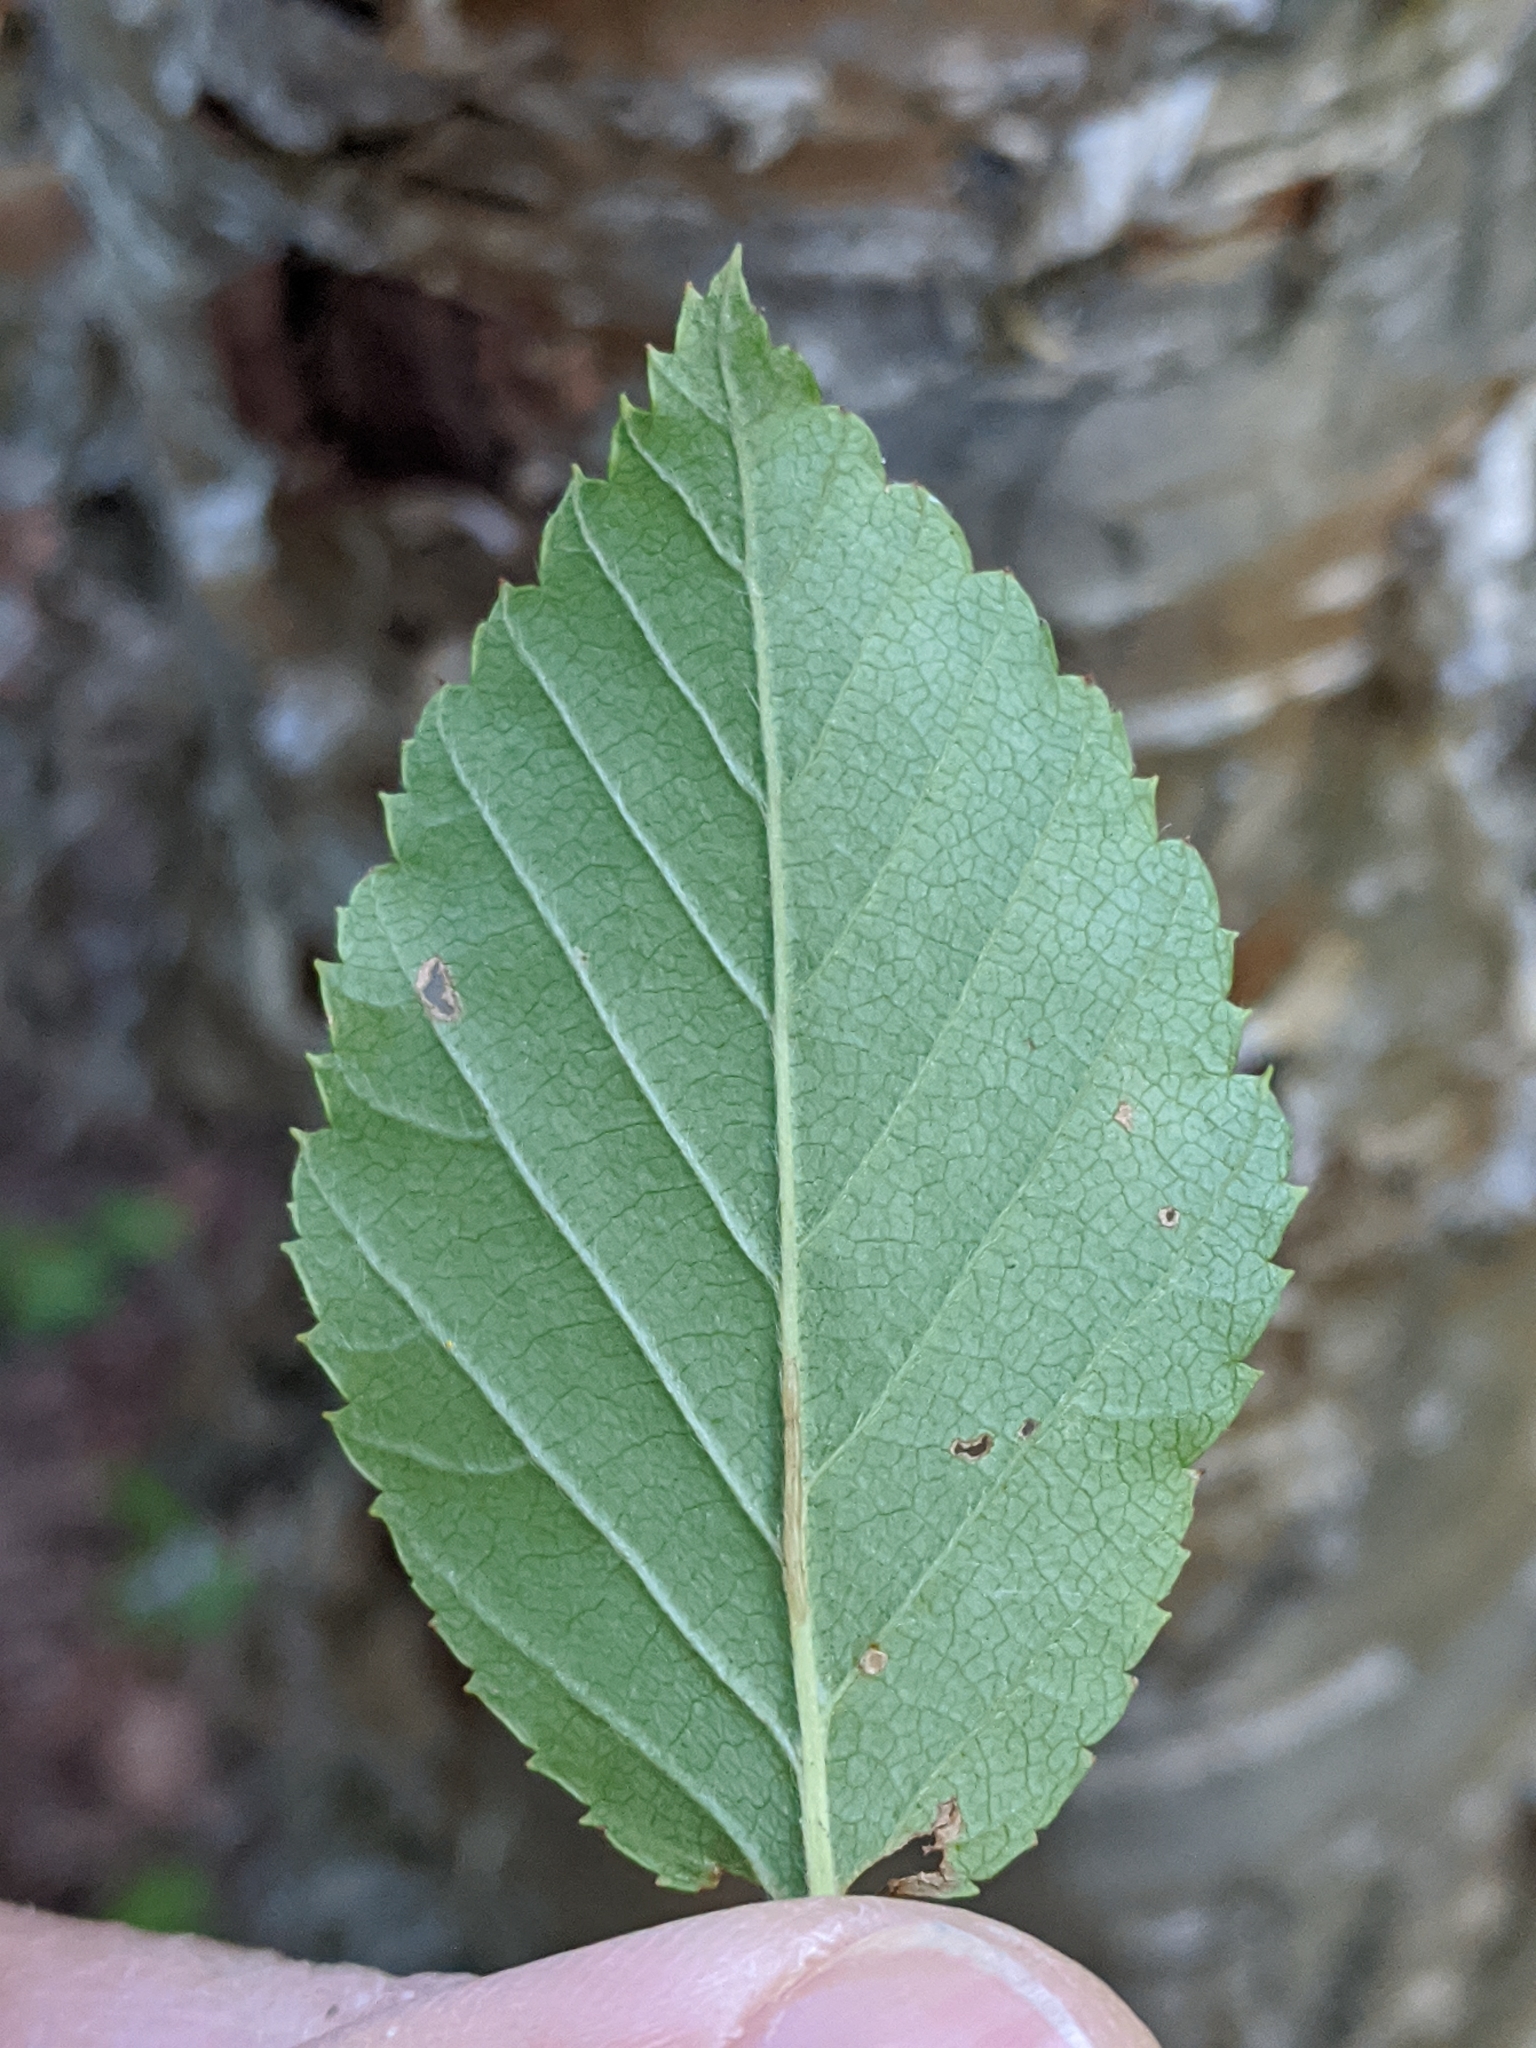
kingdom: Plantae
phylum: Tracheophyta
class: Magnoliopsida
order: Fagales
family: Betulaceae
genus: Betula
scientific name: Betula alleghaniensis
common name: Yellow birch
